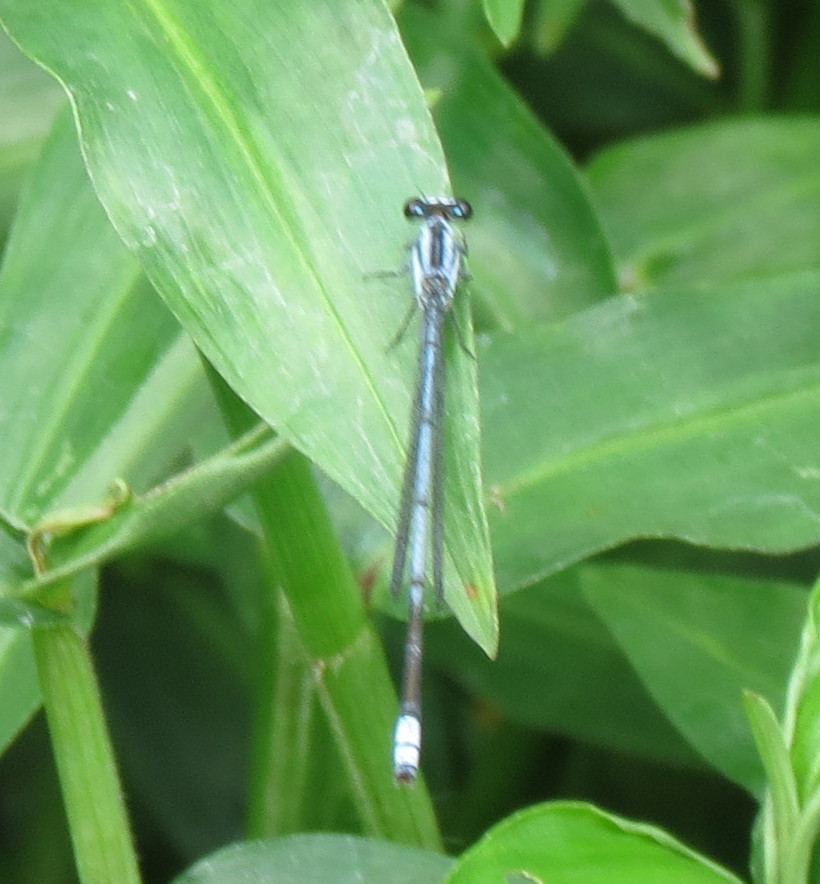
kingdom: Animalia
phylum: Arthropoda
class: Insecta
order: Odonata
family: Coenagrionidae
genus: Pseudagrion
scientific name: Pseudagrion kersteni
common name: Powder-faced sprite
